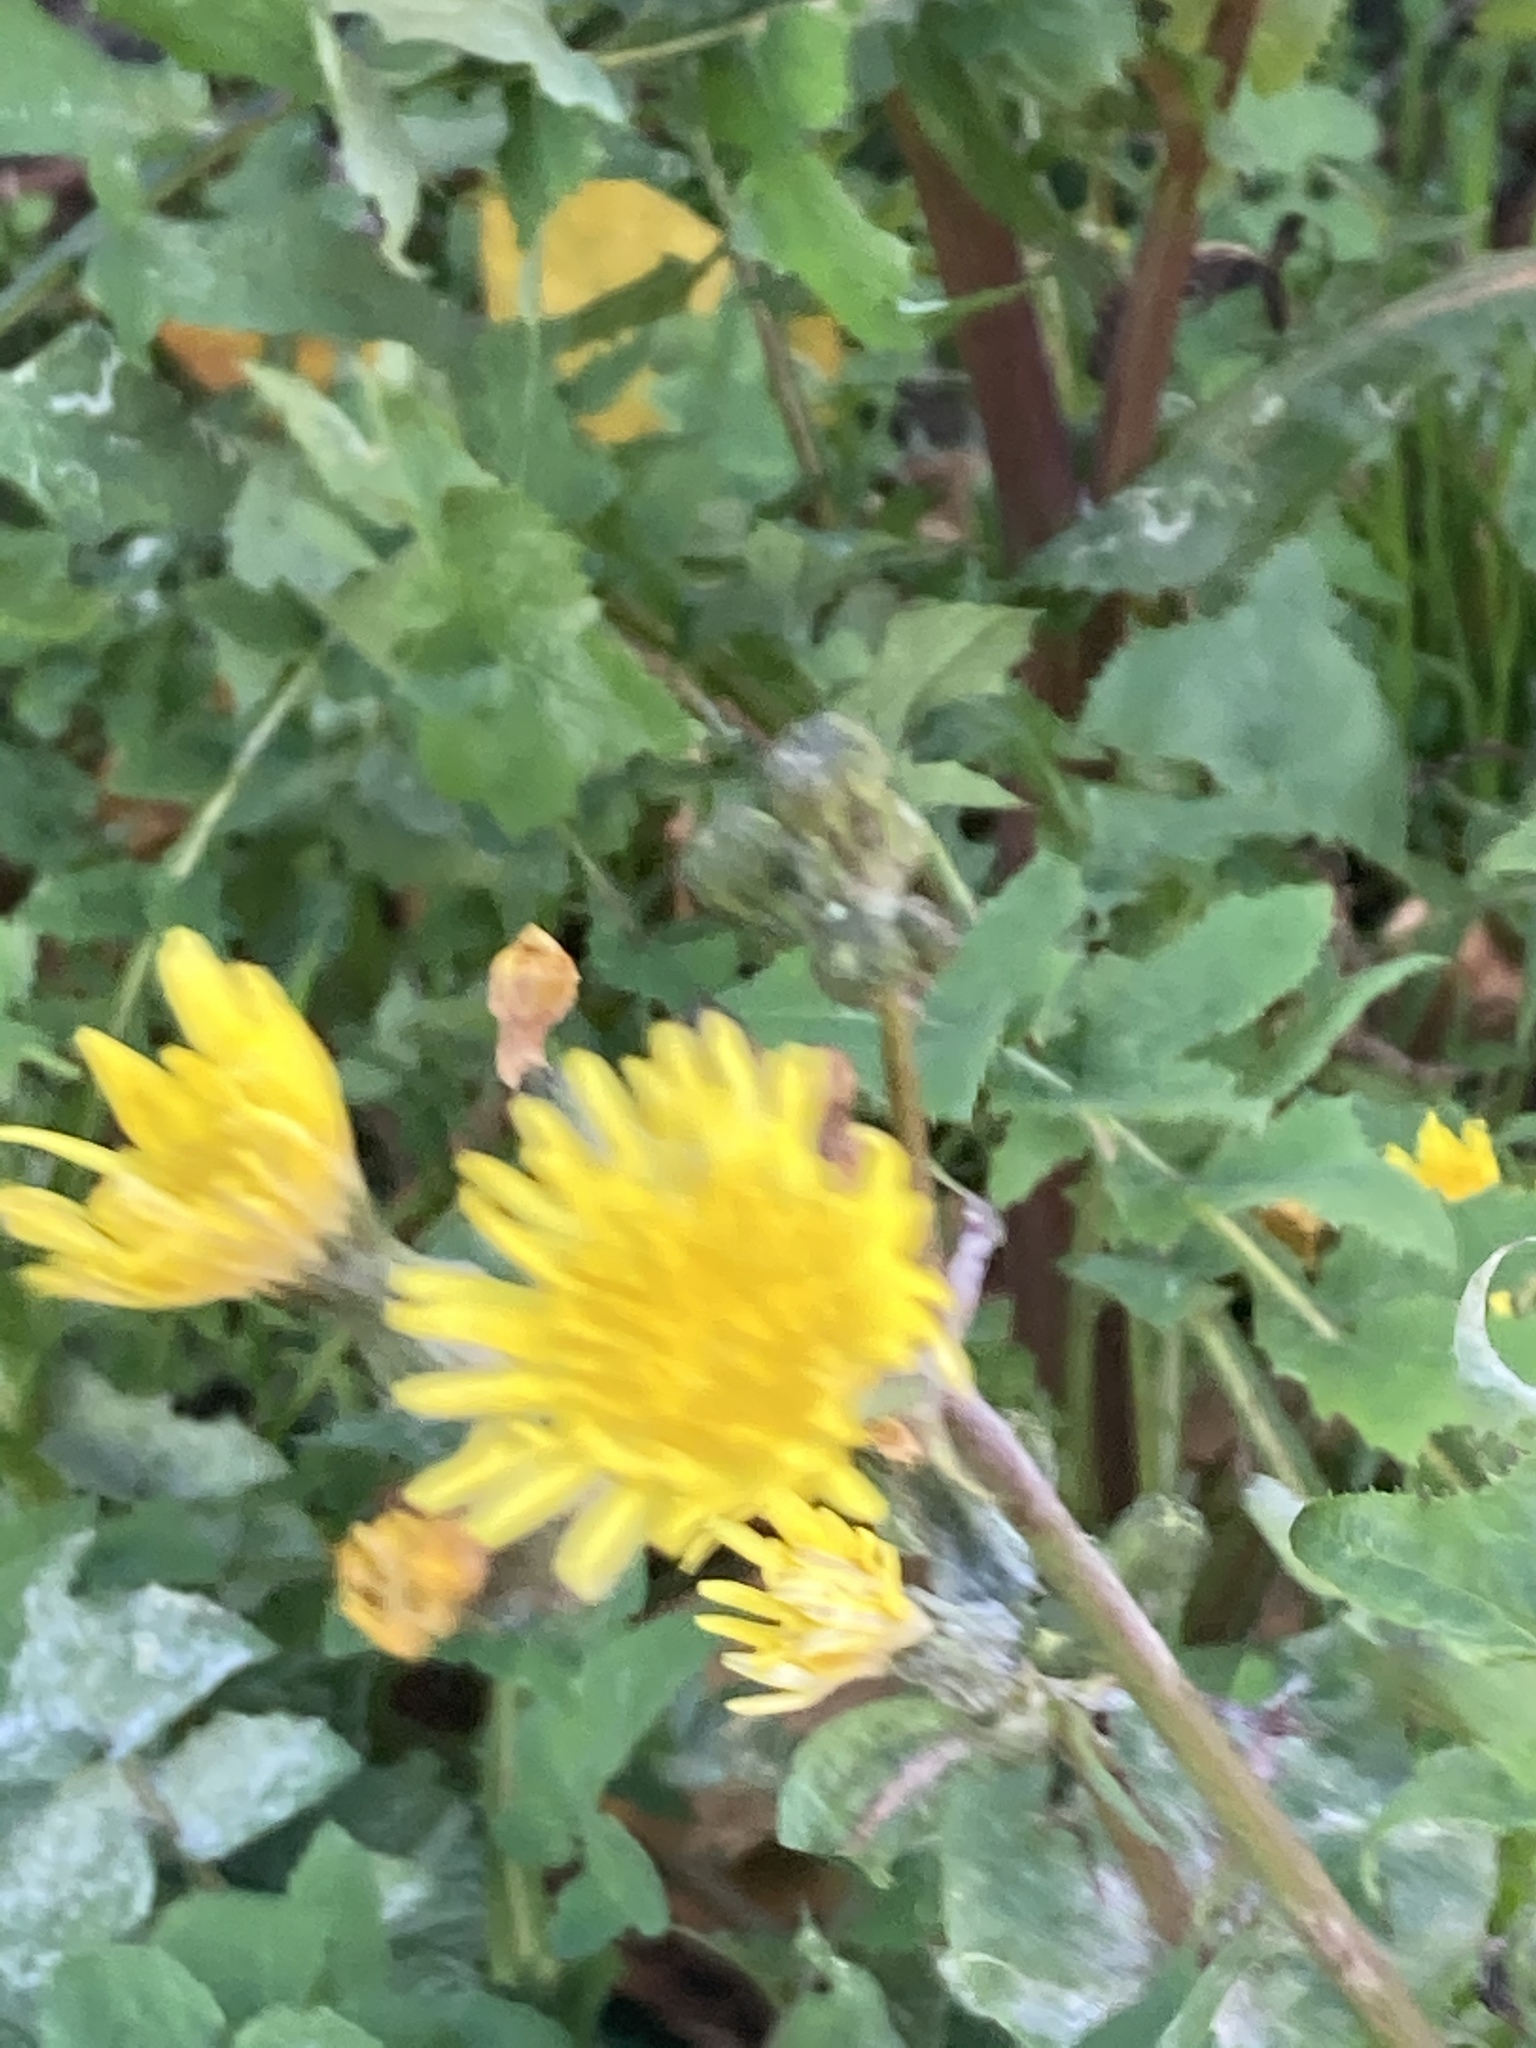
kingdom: Plantae
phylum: Tracheophyta
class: Magnoliopsida
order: Asterales
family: Asteraceae
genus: Sonchus
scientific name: Sonchus oleraceus
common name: Common sowthistle
